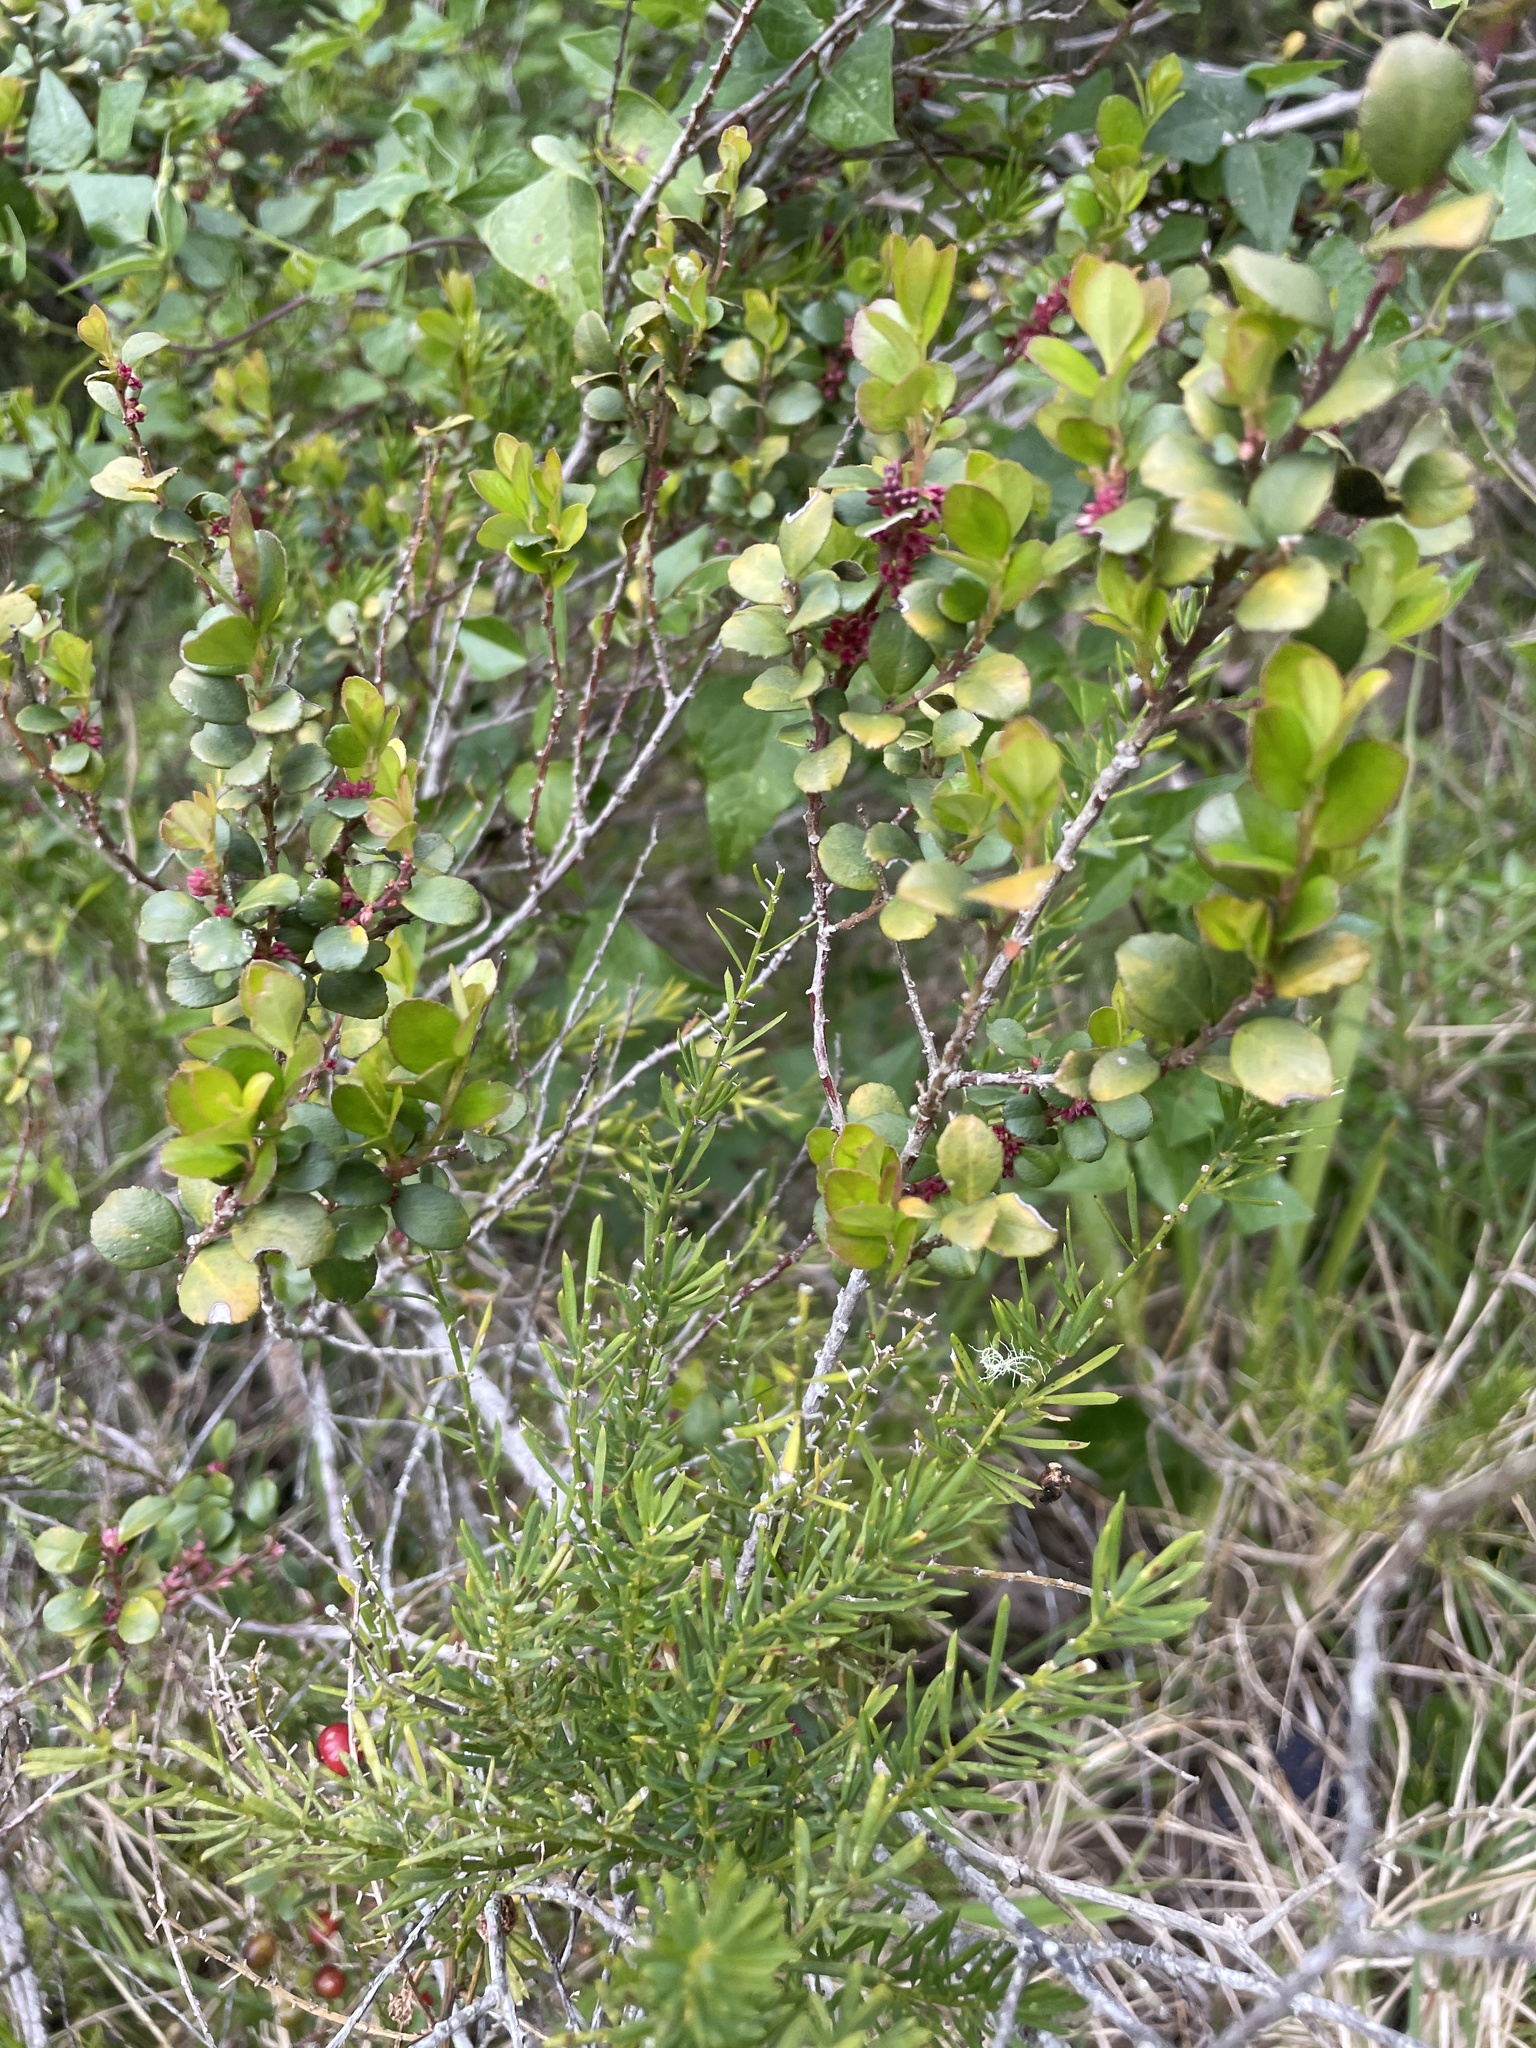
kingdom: Plantae
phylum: Tracheophyta
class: Magnoliopsida
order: Ericales
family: Primulaceae
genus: Myrsine
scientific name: Myrsine africana
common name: African-boxwood
